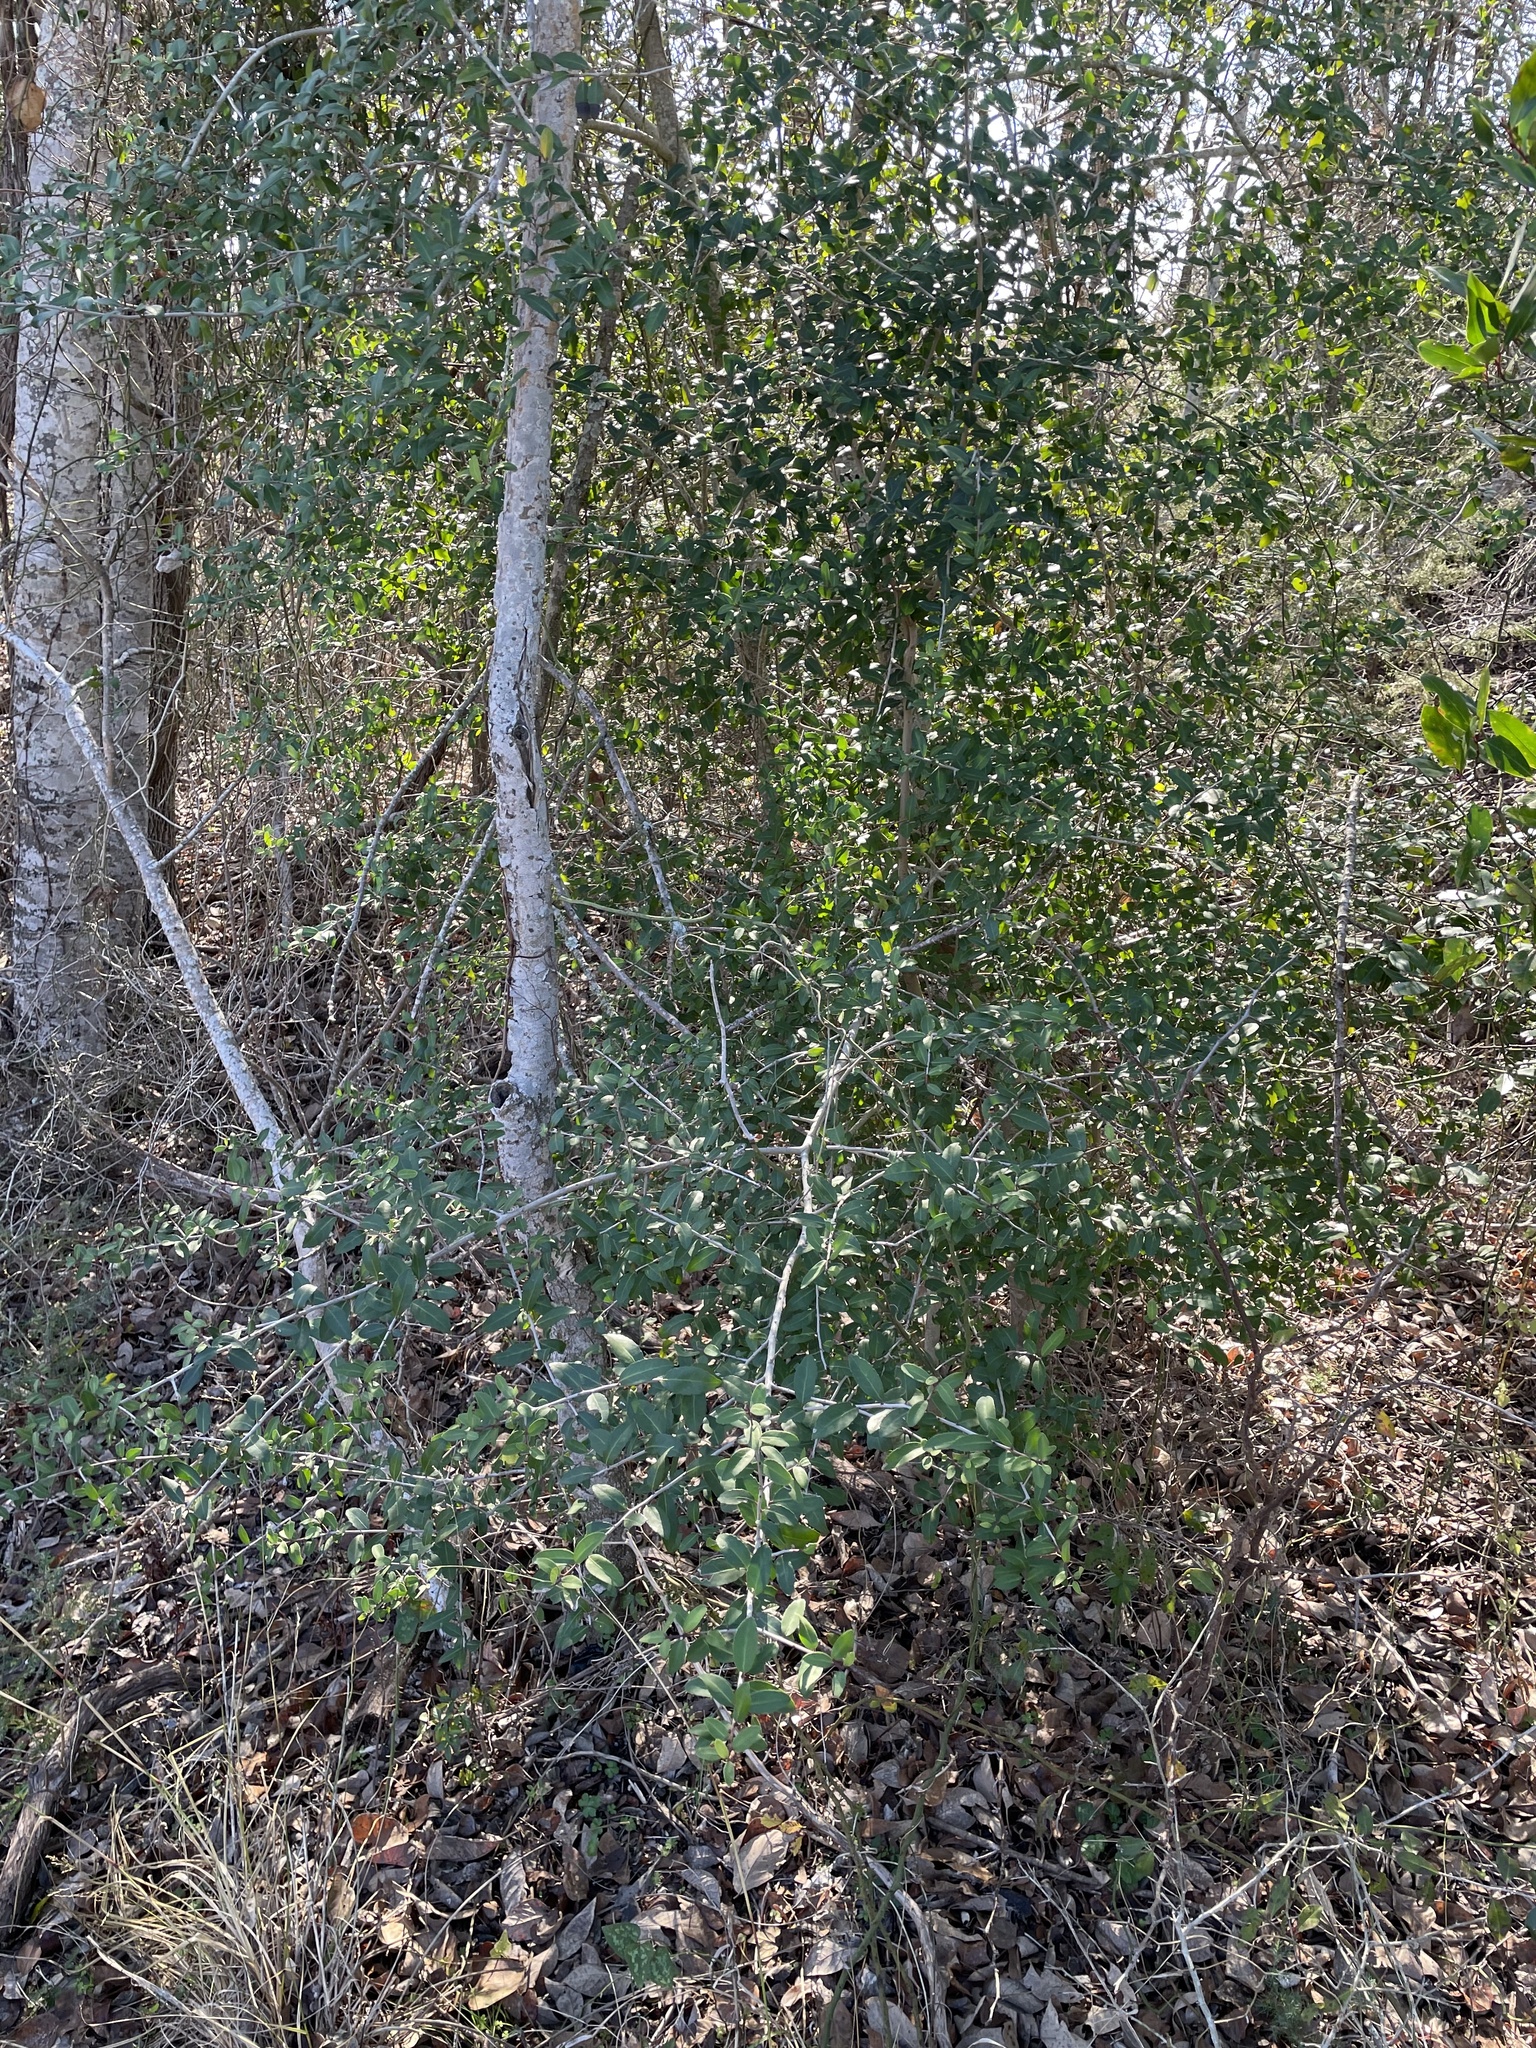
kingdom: Plantae
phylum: Tracheophyta
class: Magnoliopsida
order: Aquifoliales
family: Aquifoliaceae
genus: Ilex
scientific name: Ilex vomitoria
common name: Yaupon holly
